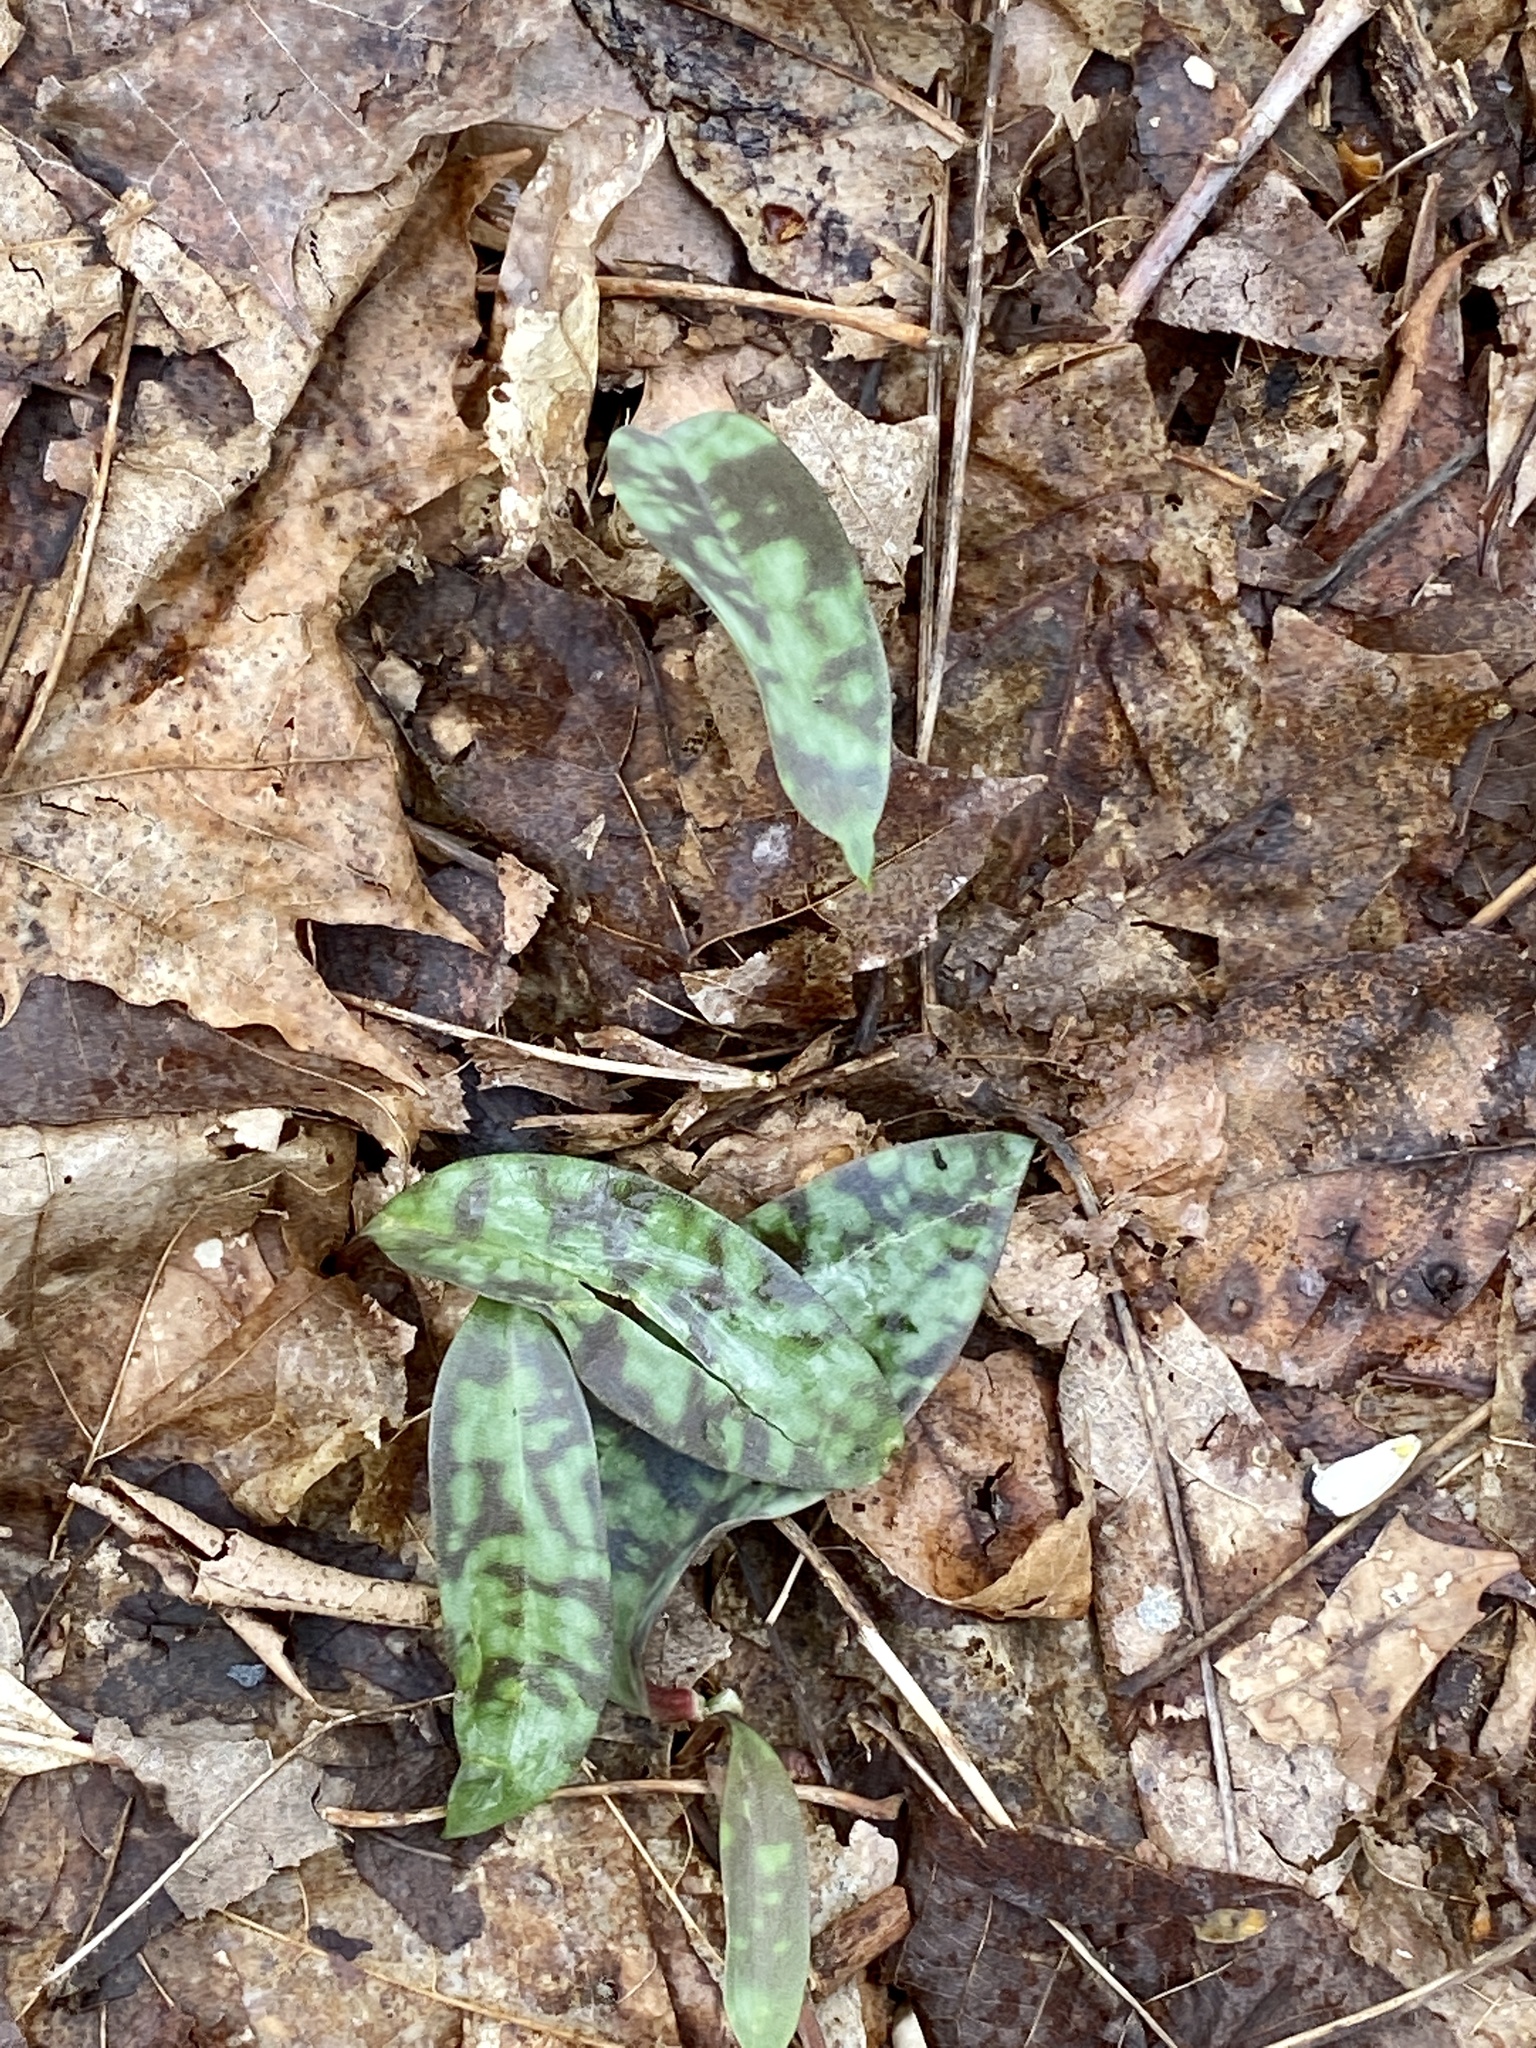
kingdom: Plantae
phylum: Tracheophyta
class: Liliopsida
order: Liliales
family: Liliaceae
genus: Erythronium
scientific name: Erythronium americanum
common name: Yellow adder's-tongue
